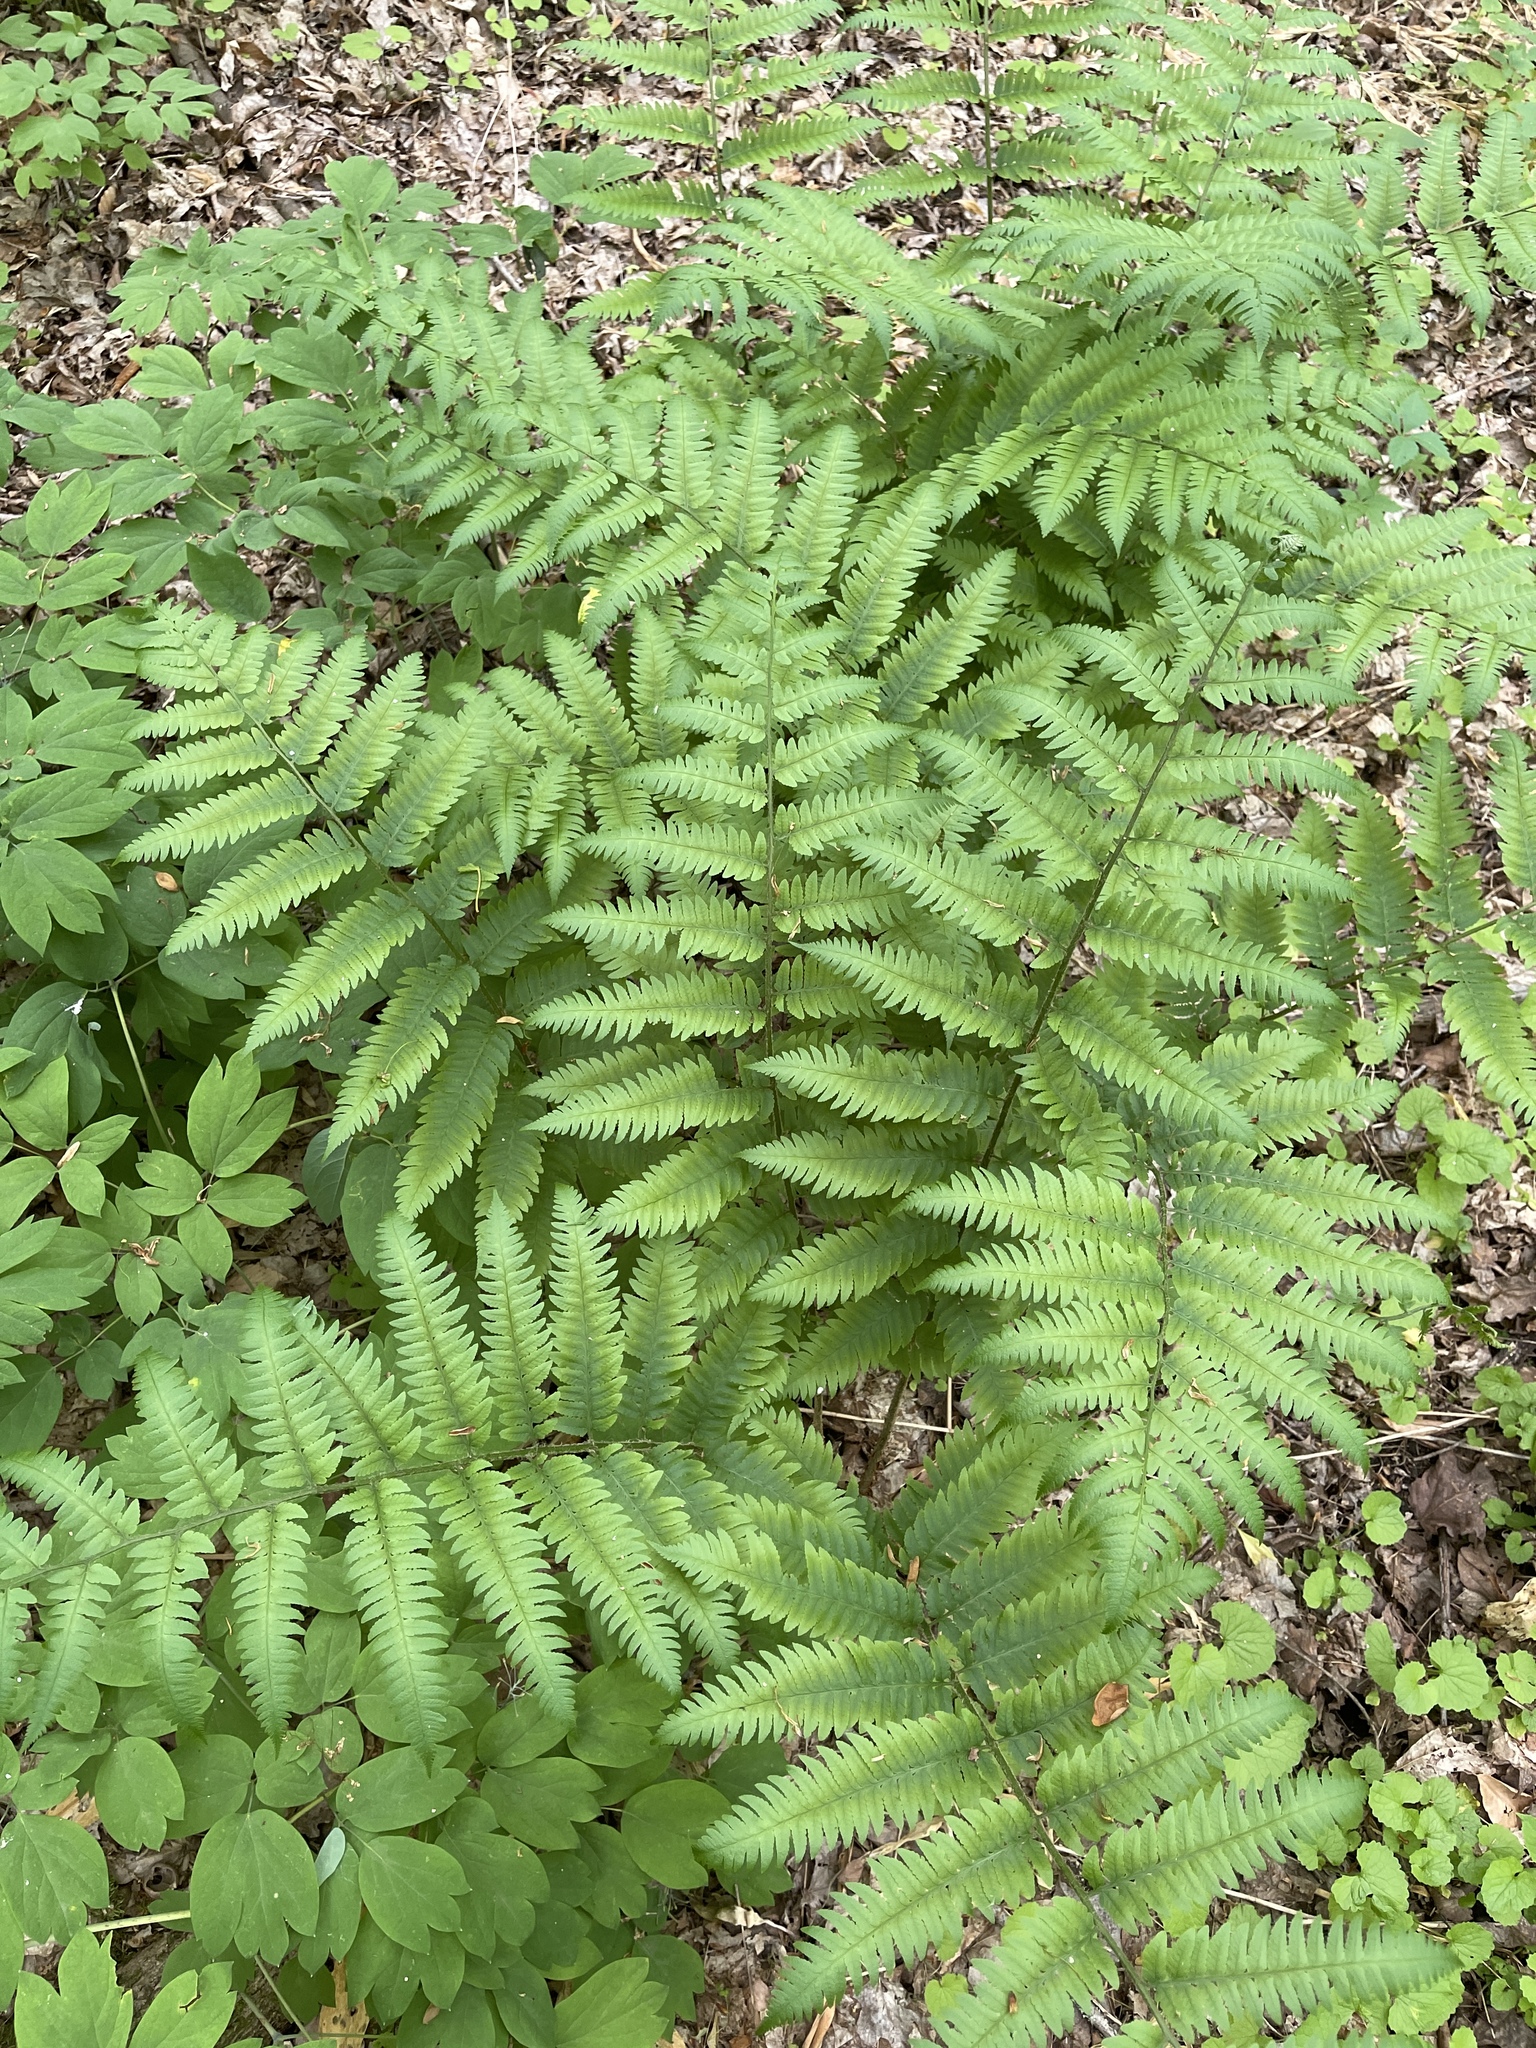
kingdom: Plantae
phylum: Tracheophyta
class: Polypodiopsida
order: Polypodiales
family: Dryopteridaceae
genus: Dryopteris
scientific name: Dryopteris goldieana
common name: Goldie's fern
